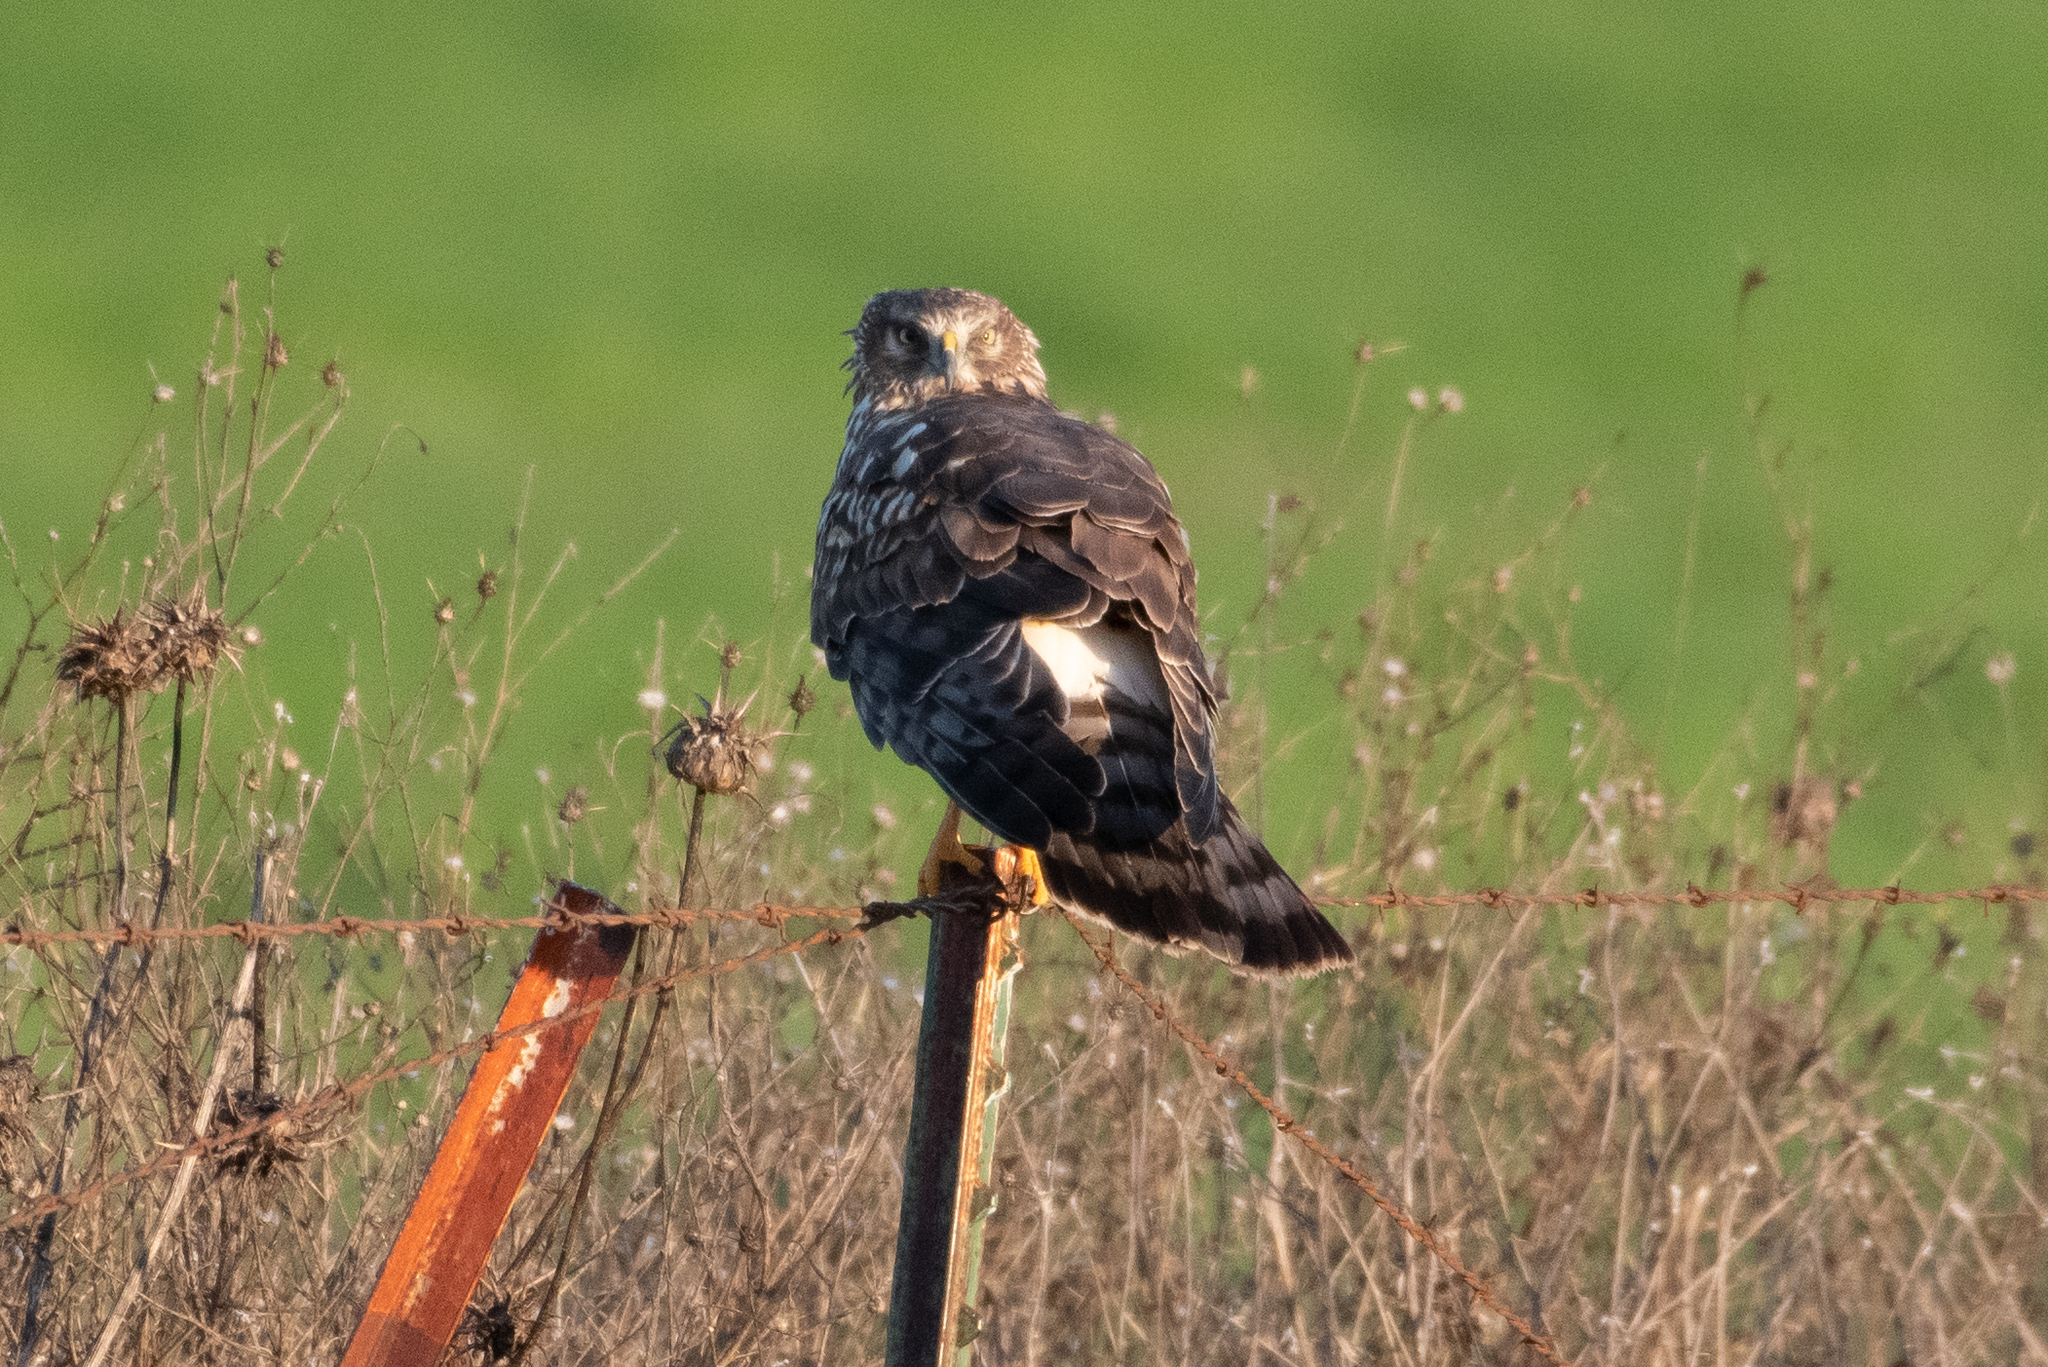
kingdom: Animalia
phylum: Chordata
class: Aves
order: Accipitriformes
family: Accipitridae
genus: Circus
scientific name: Circus cyaneus
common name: Hen harrier
